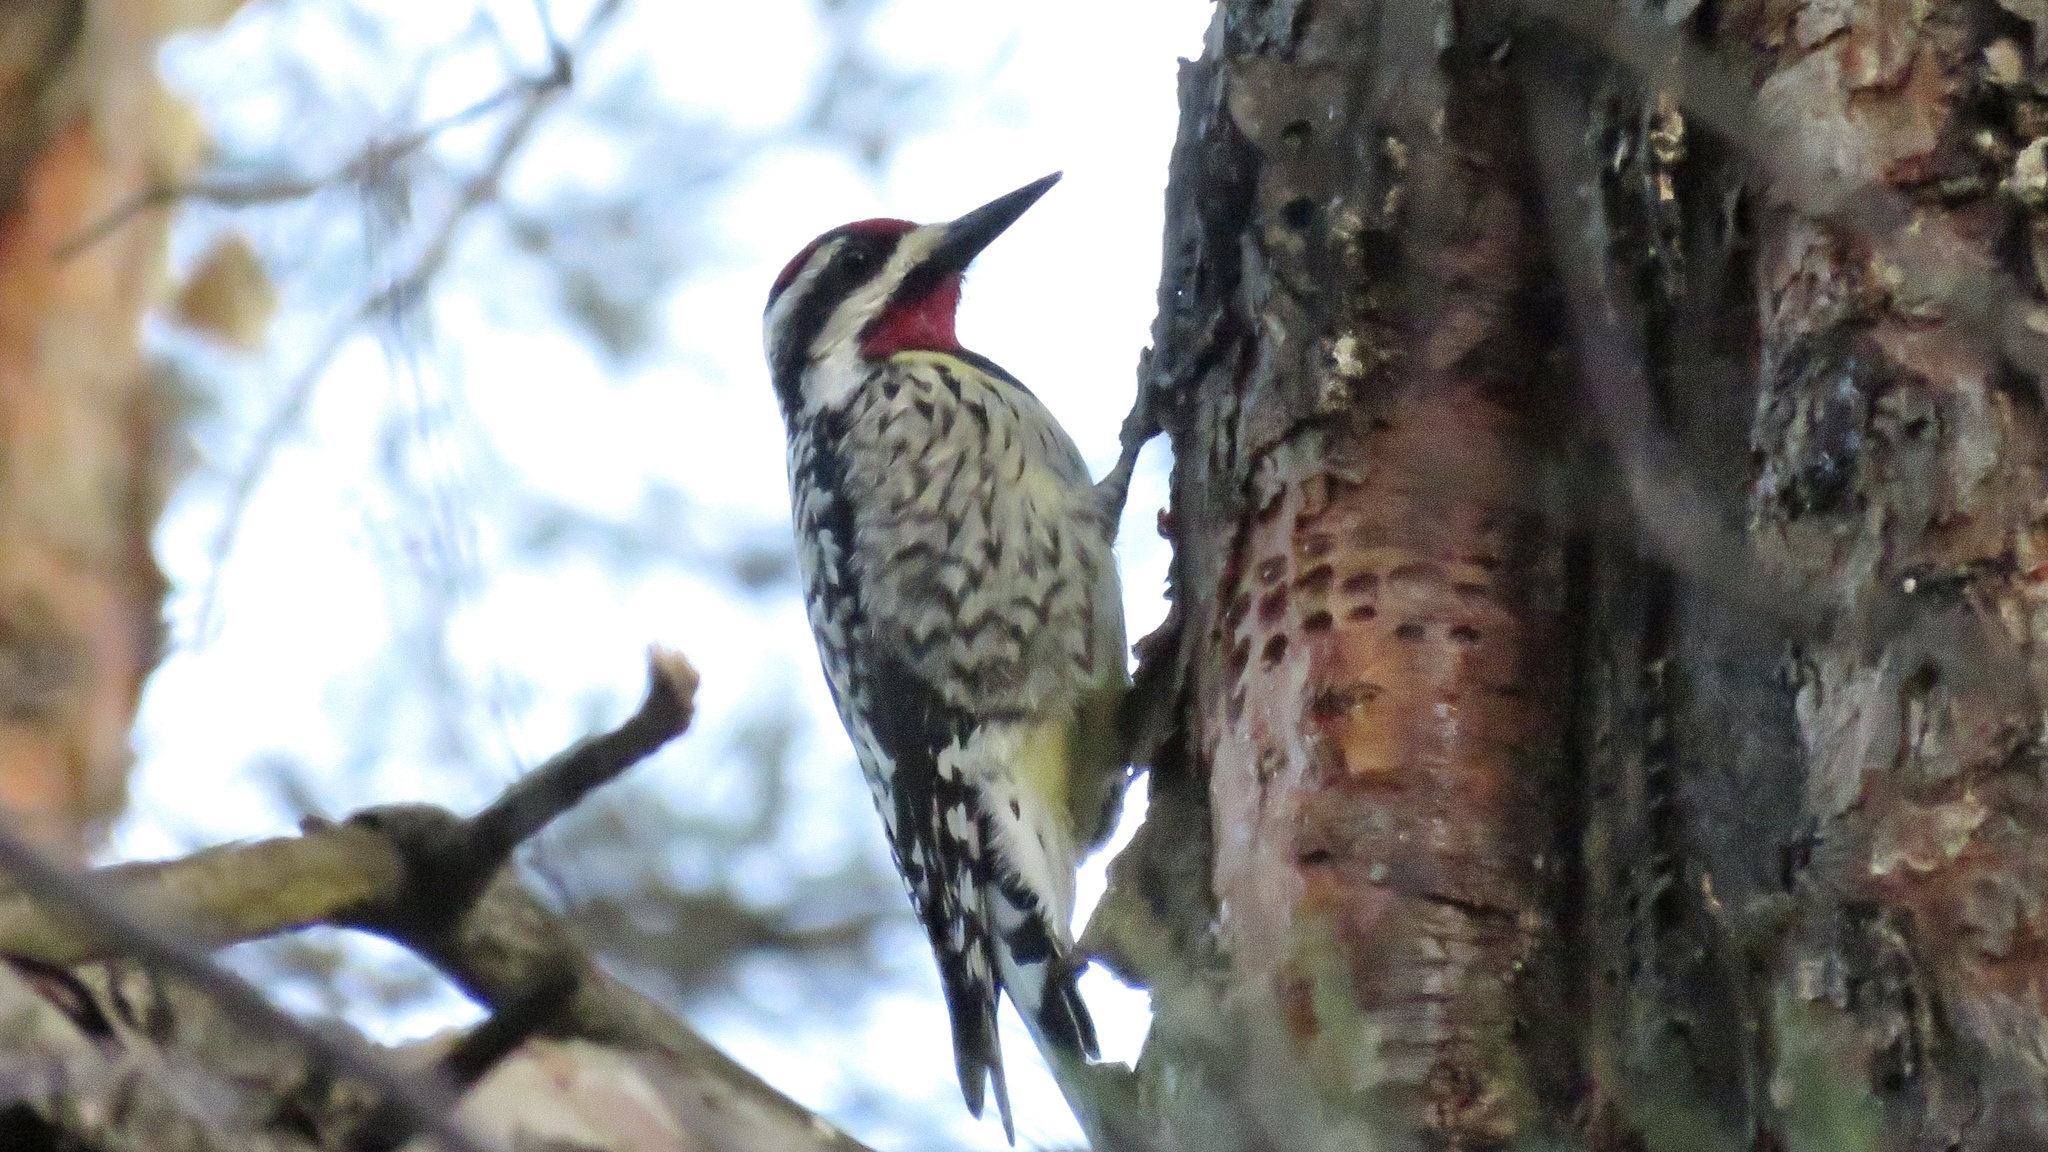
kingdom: Animalia
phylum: Chordata
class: Aves
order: Piciformes
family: Picidae
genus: Sphyrapicus
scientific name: Sphyrapicus varius
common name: Yellow-bellied sapsucker
